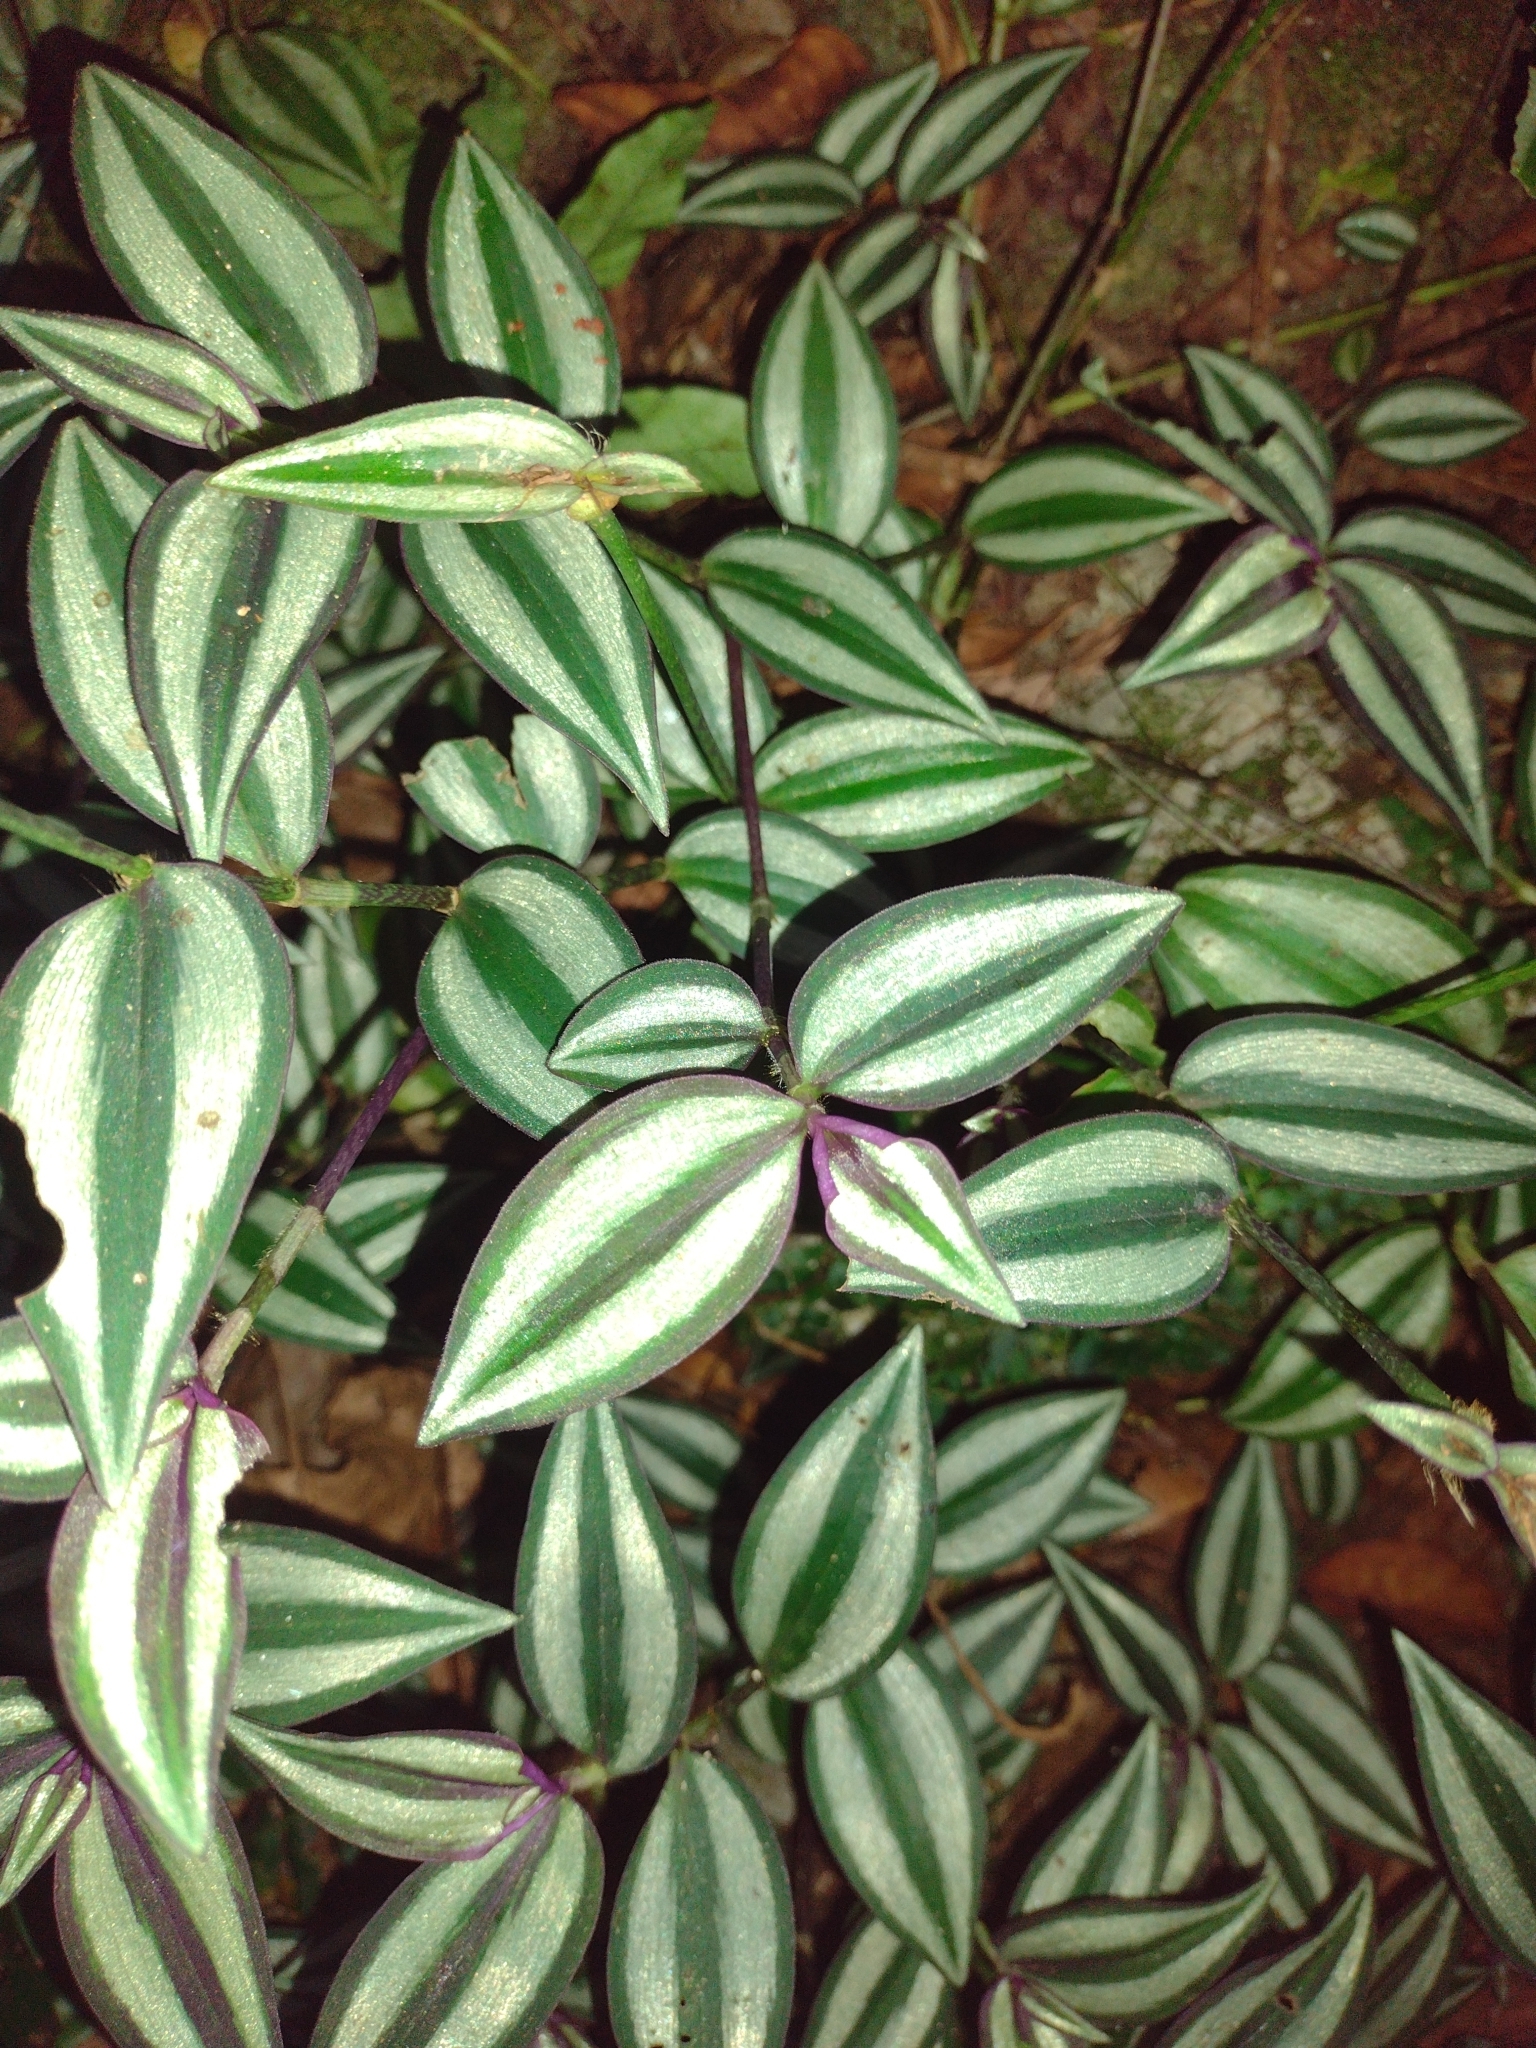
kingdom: Plantae
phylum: Tracheophyta
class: Liliopsida
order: Commelinales
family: Commelinaceae
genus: Tradescantia
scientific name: Tradescantia zebrina
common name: Inchplant
